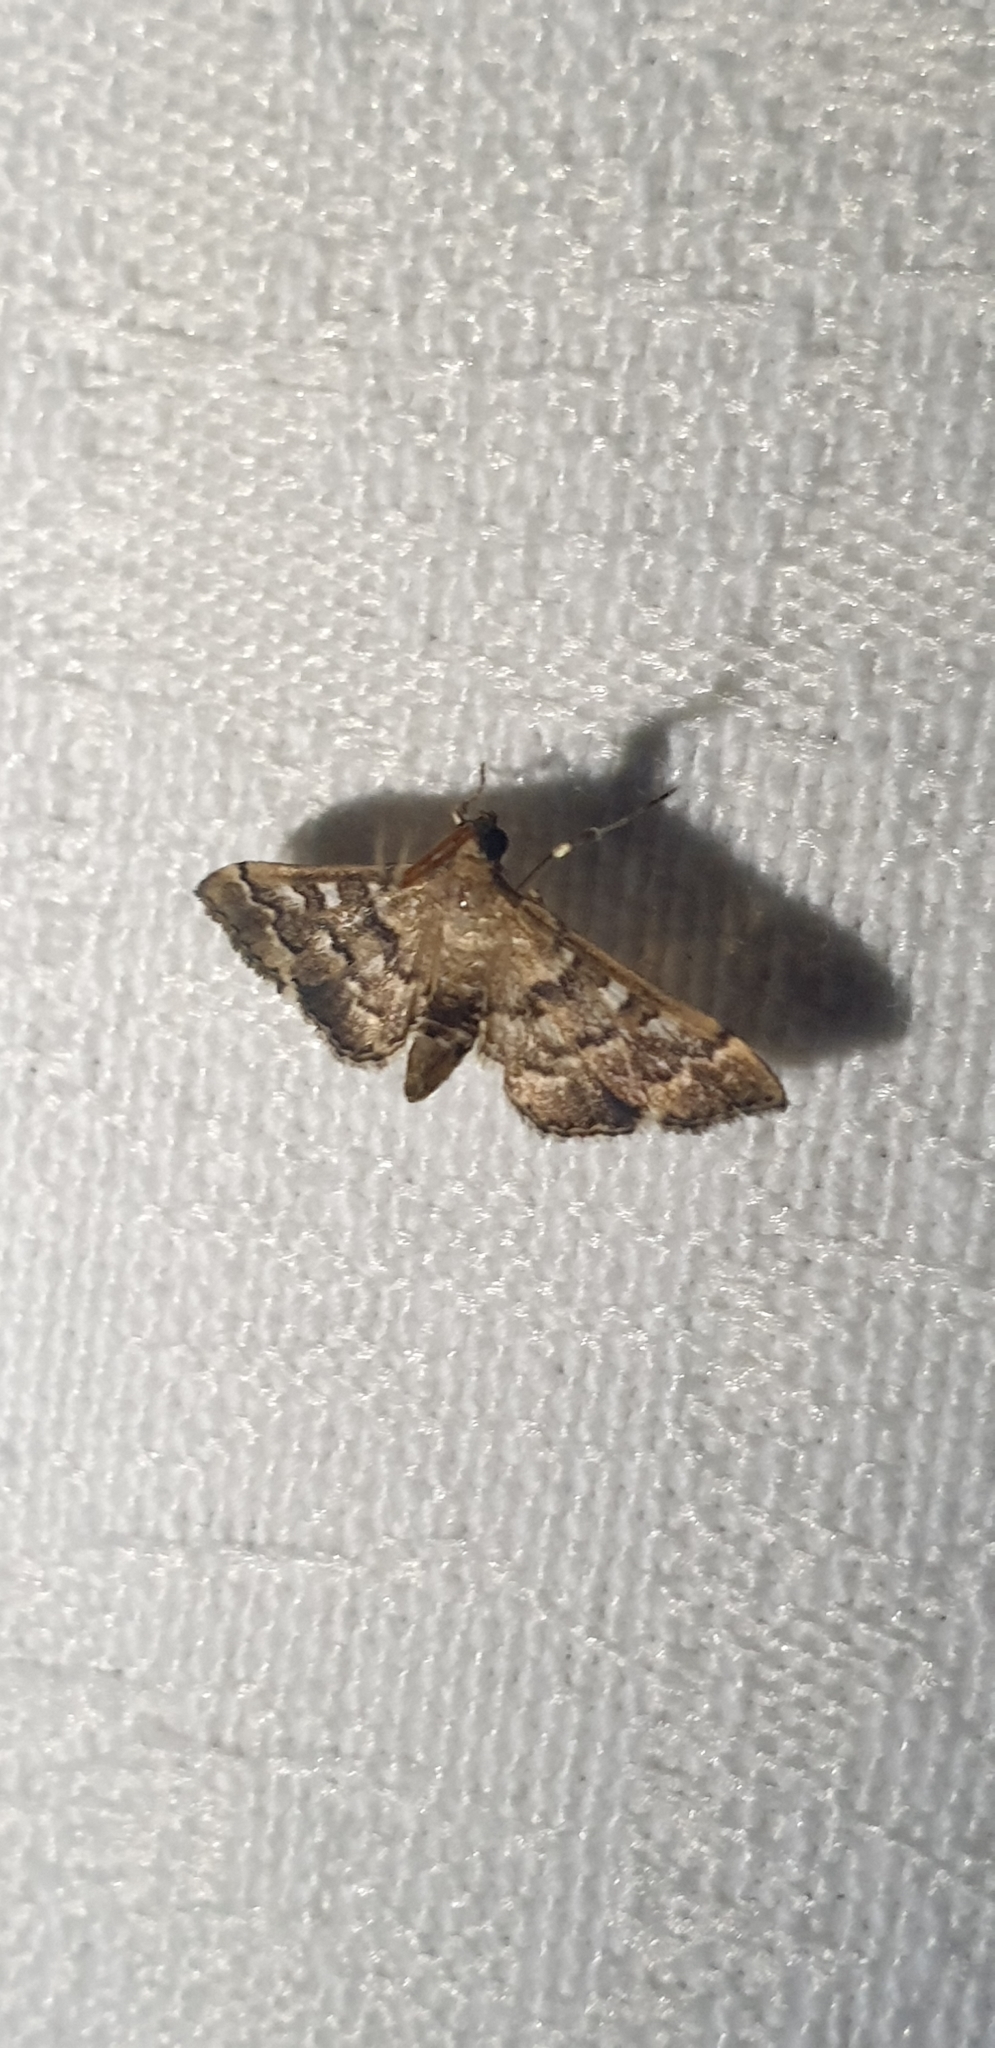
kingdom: Animalia
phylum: Arthropoda
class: Insecta
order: Lepidoptera
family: Crambidae
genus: Nacoleia
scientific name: Nacoleia rhoeoalis
